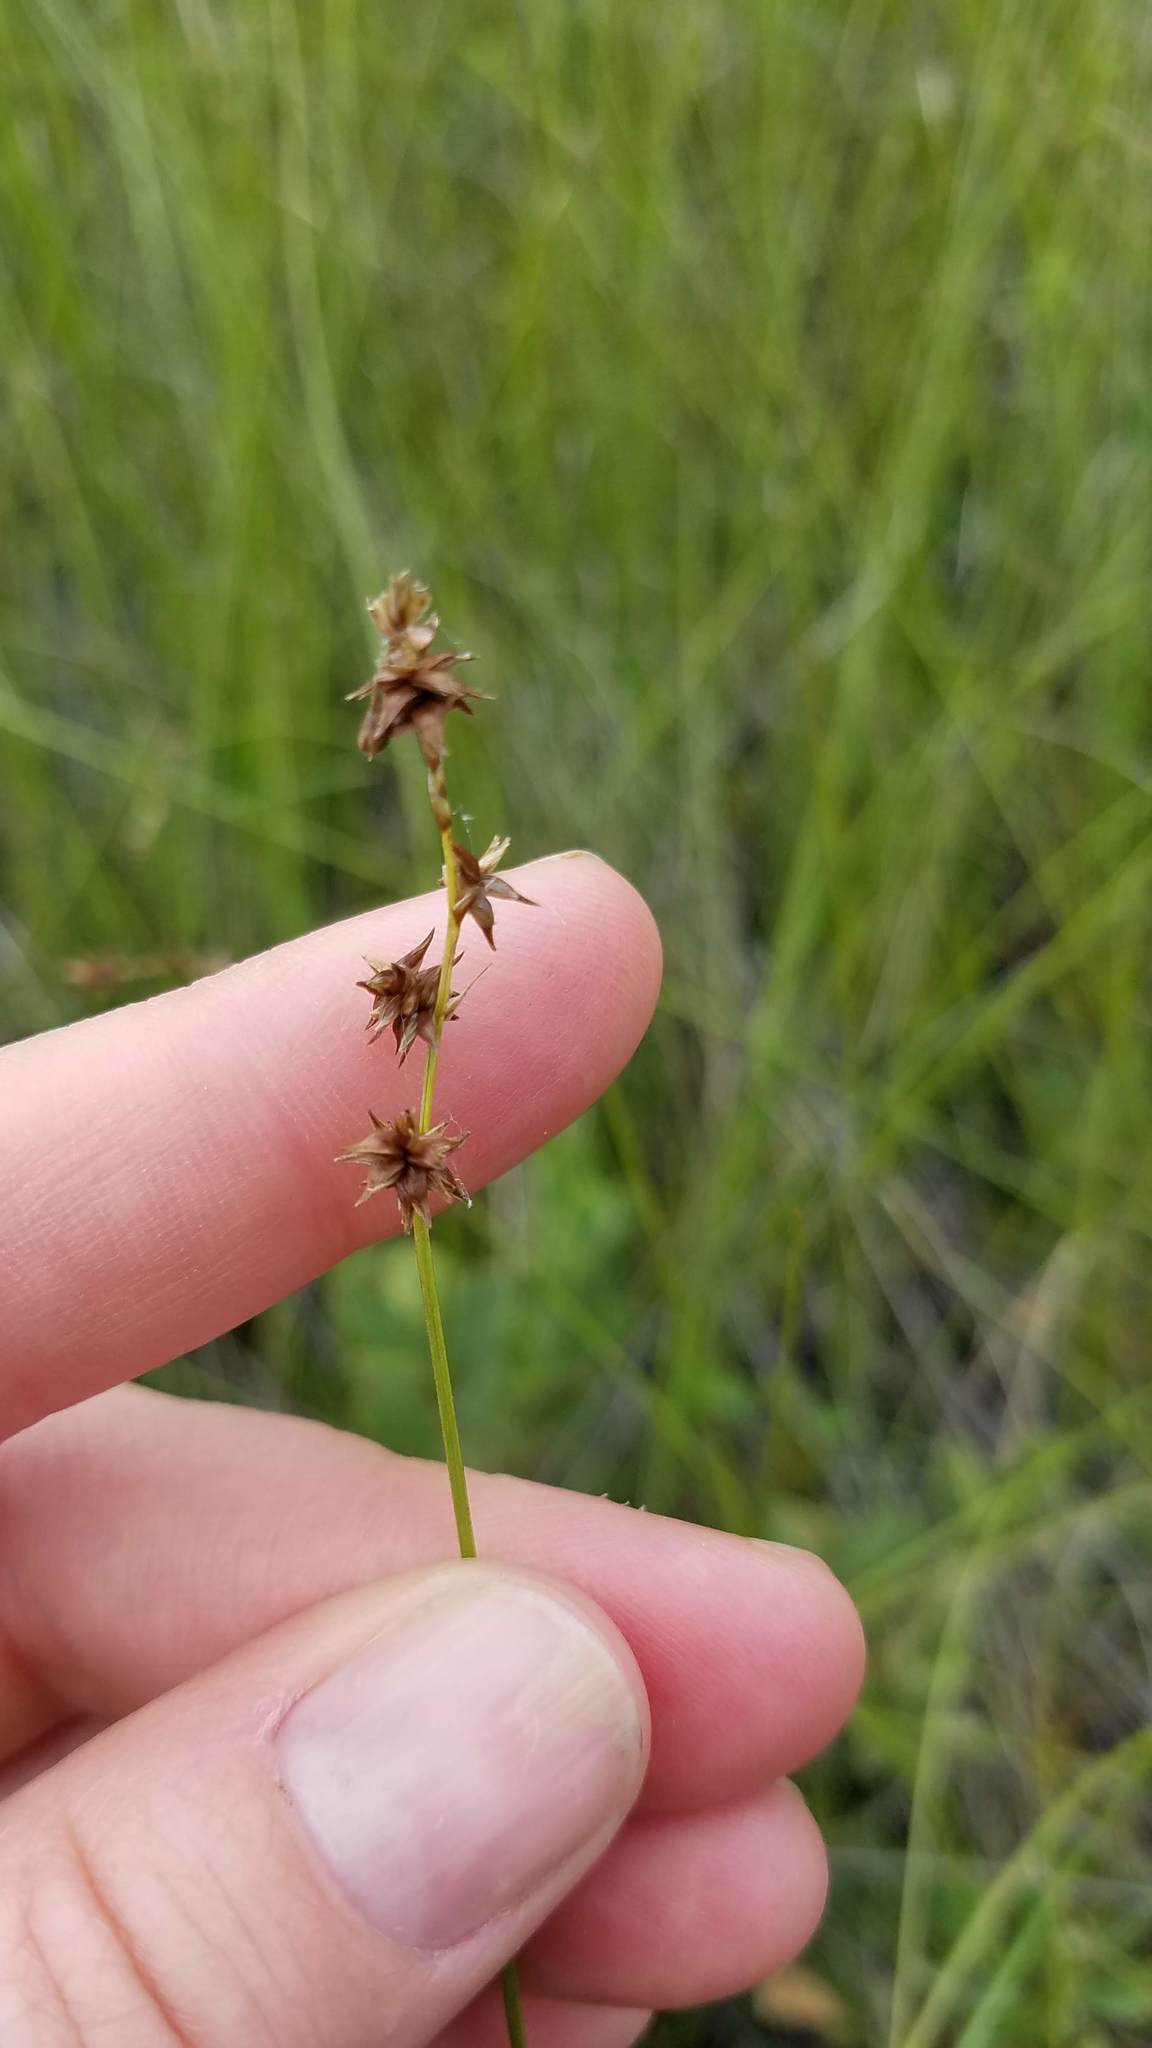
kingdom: Plantae
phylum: Tracheophyta
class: Liliopsida
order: Poales
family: Cyperaceae
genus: Carex
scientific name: Carex echinata
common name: Star sedge
